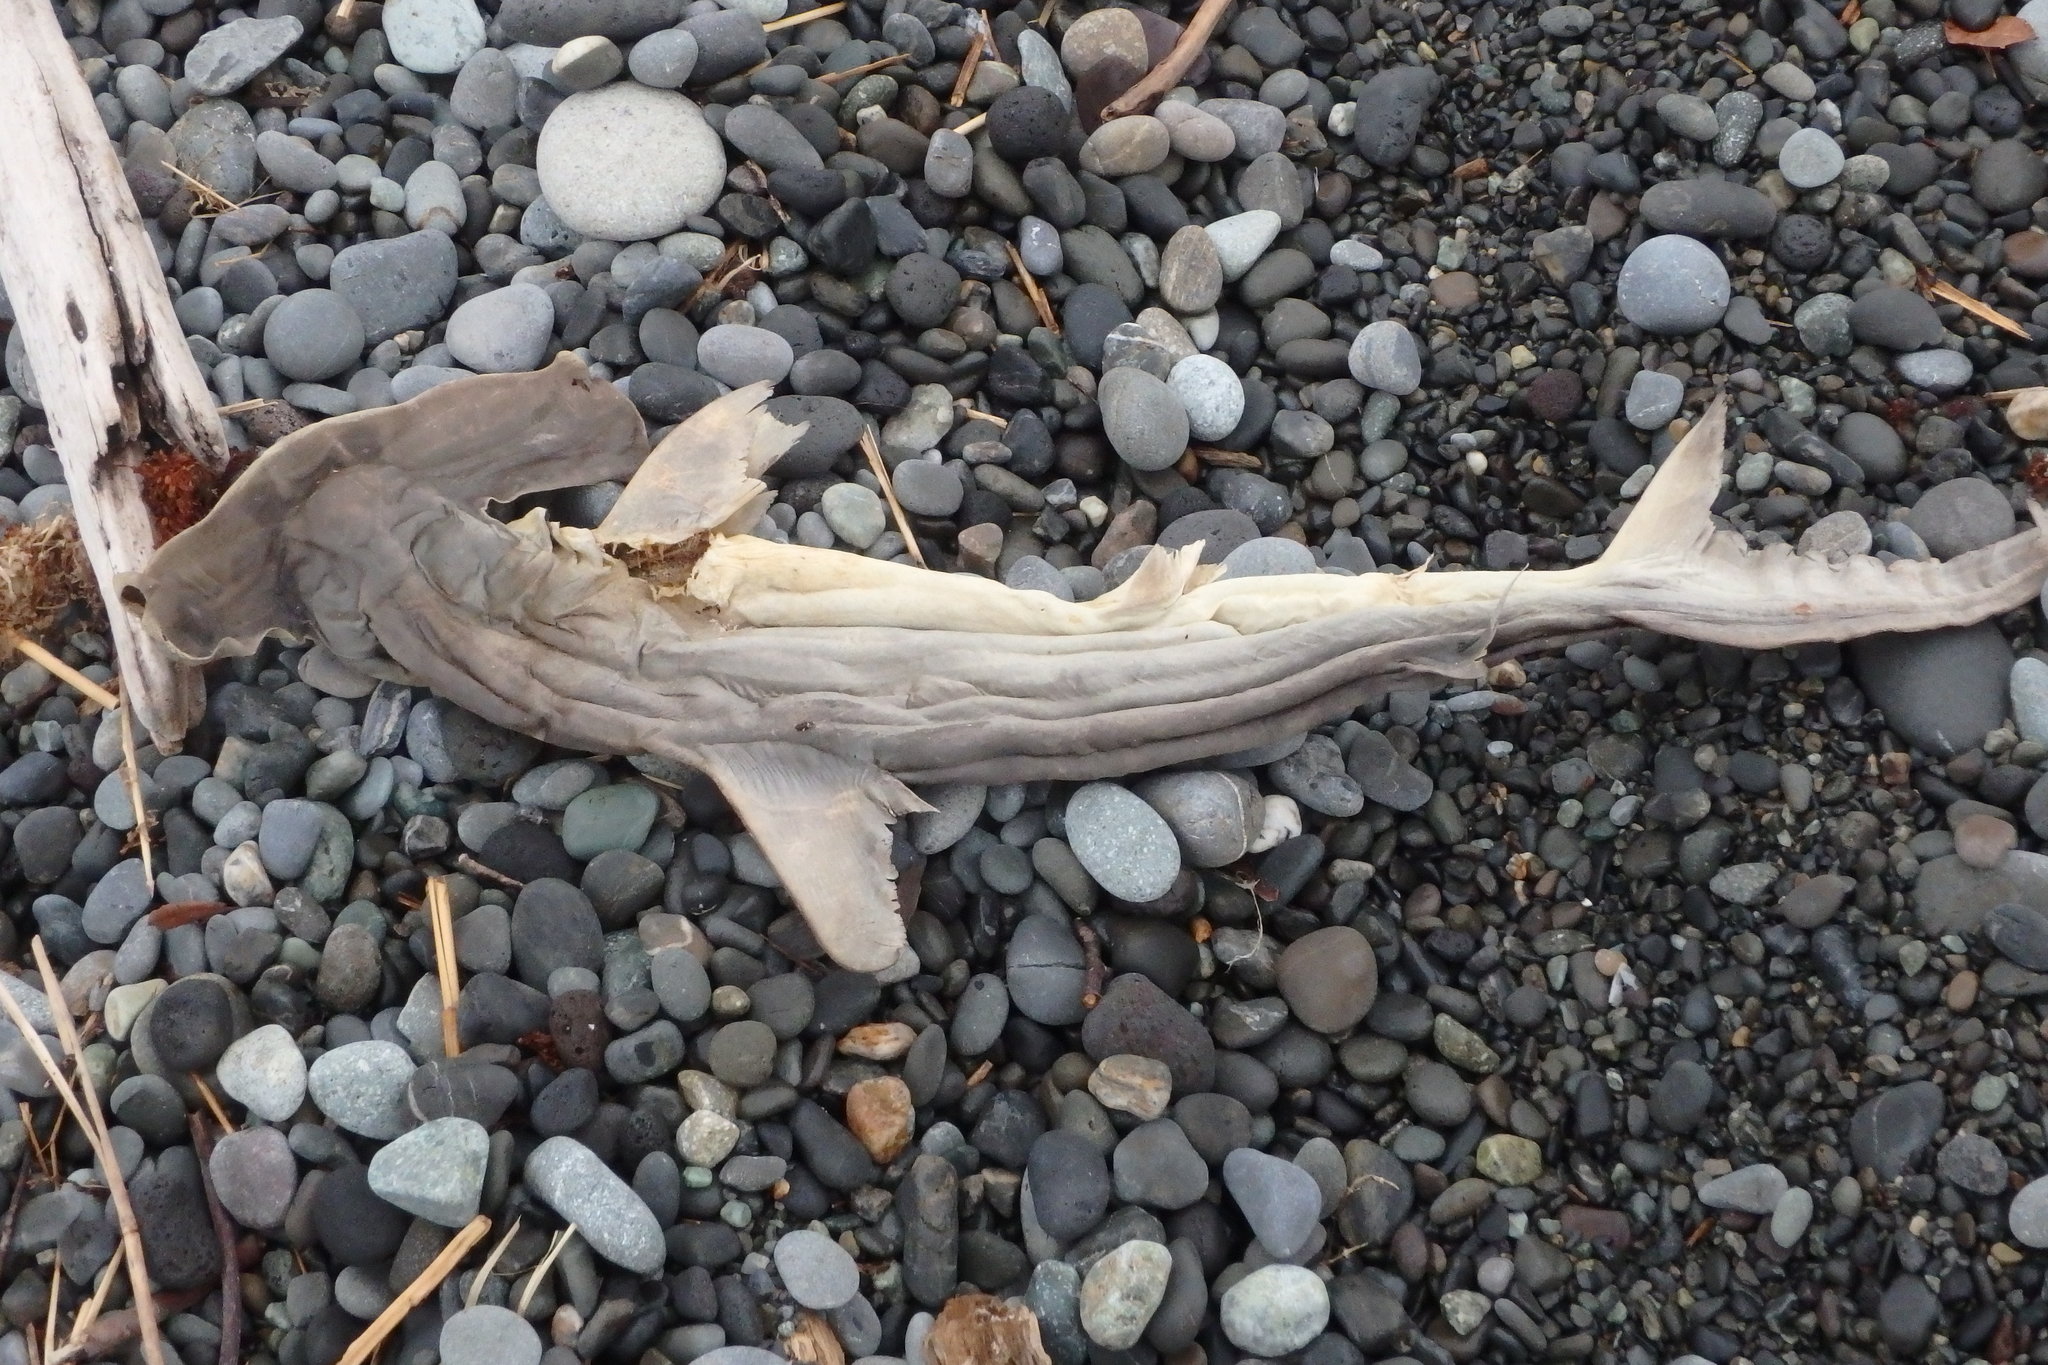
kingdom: Animalia
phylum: Chordata
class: Elasmobranchii
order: Carcharhiniformes
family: Sphyrnidae
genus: Sphyrna
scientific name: Sphyrna zygaena
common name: Smooth hammerhead
